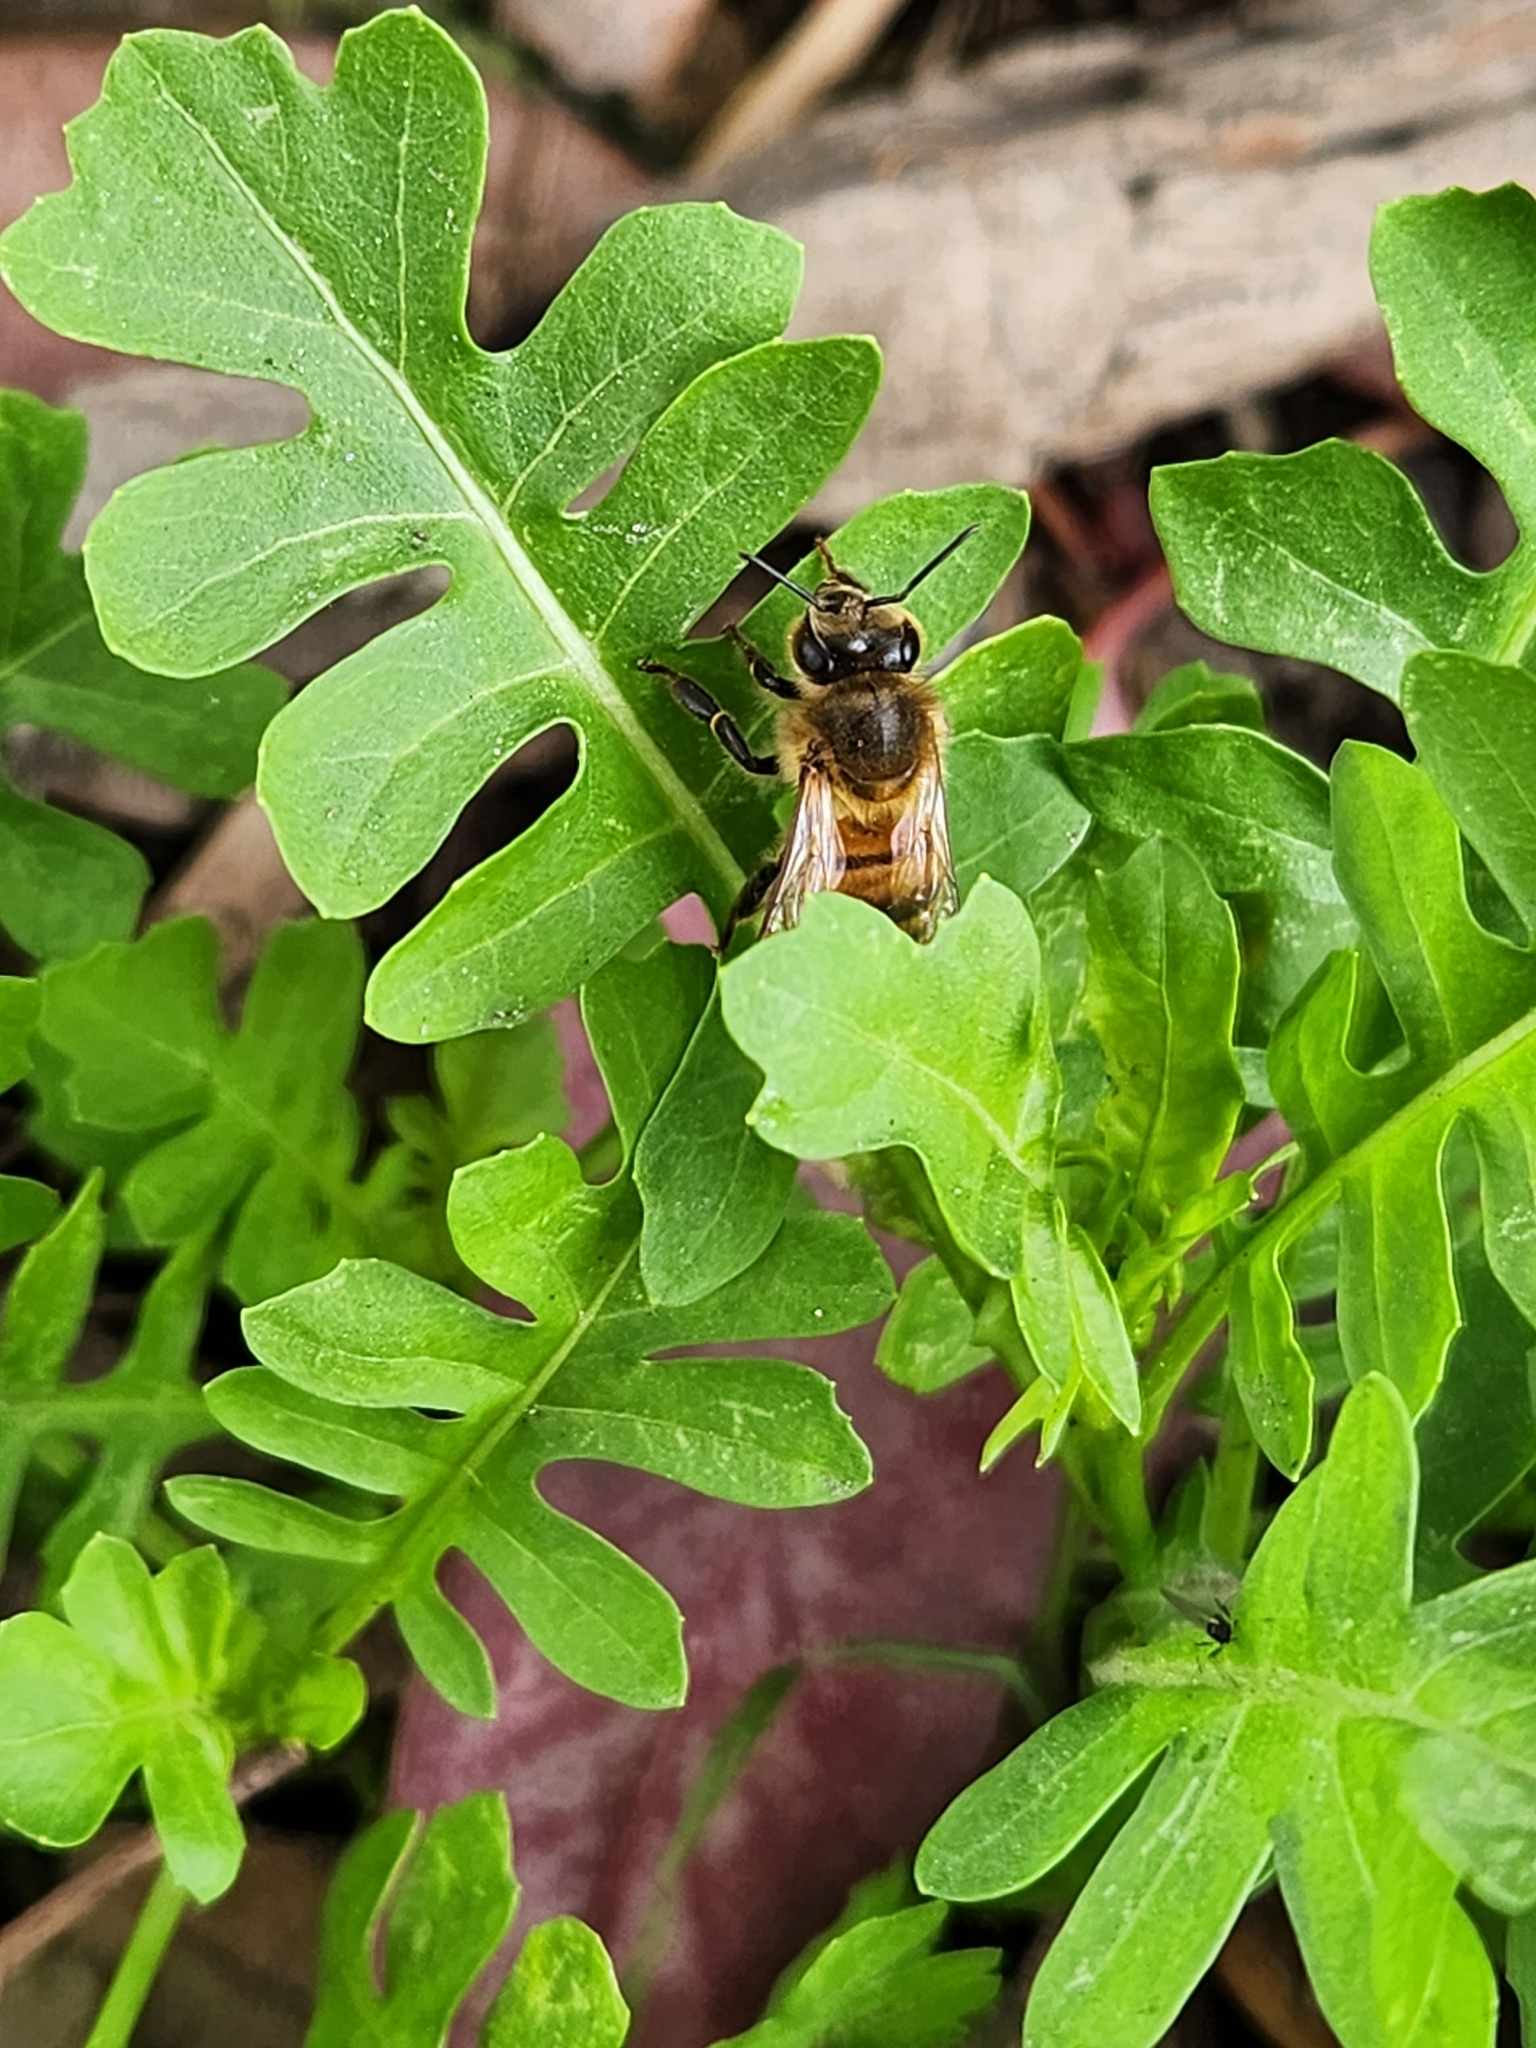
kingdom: Animalia
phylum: Arthropoda
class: Insecta
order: Hymenoptera
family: Apidae
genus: Apis
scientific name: Apis mellifera
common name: Honey bee
